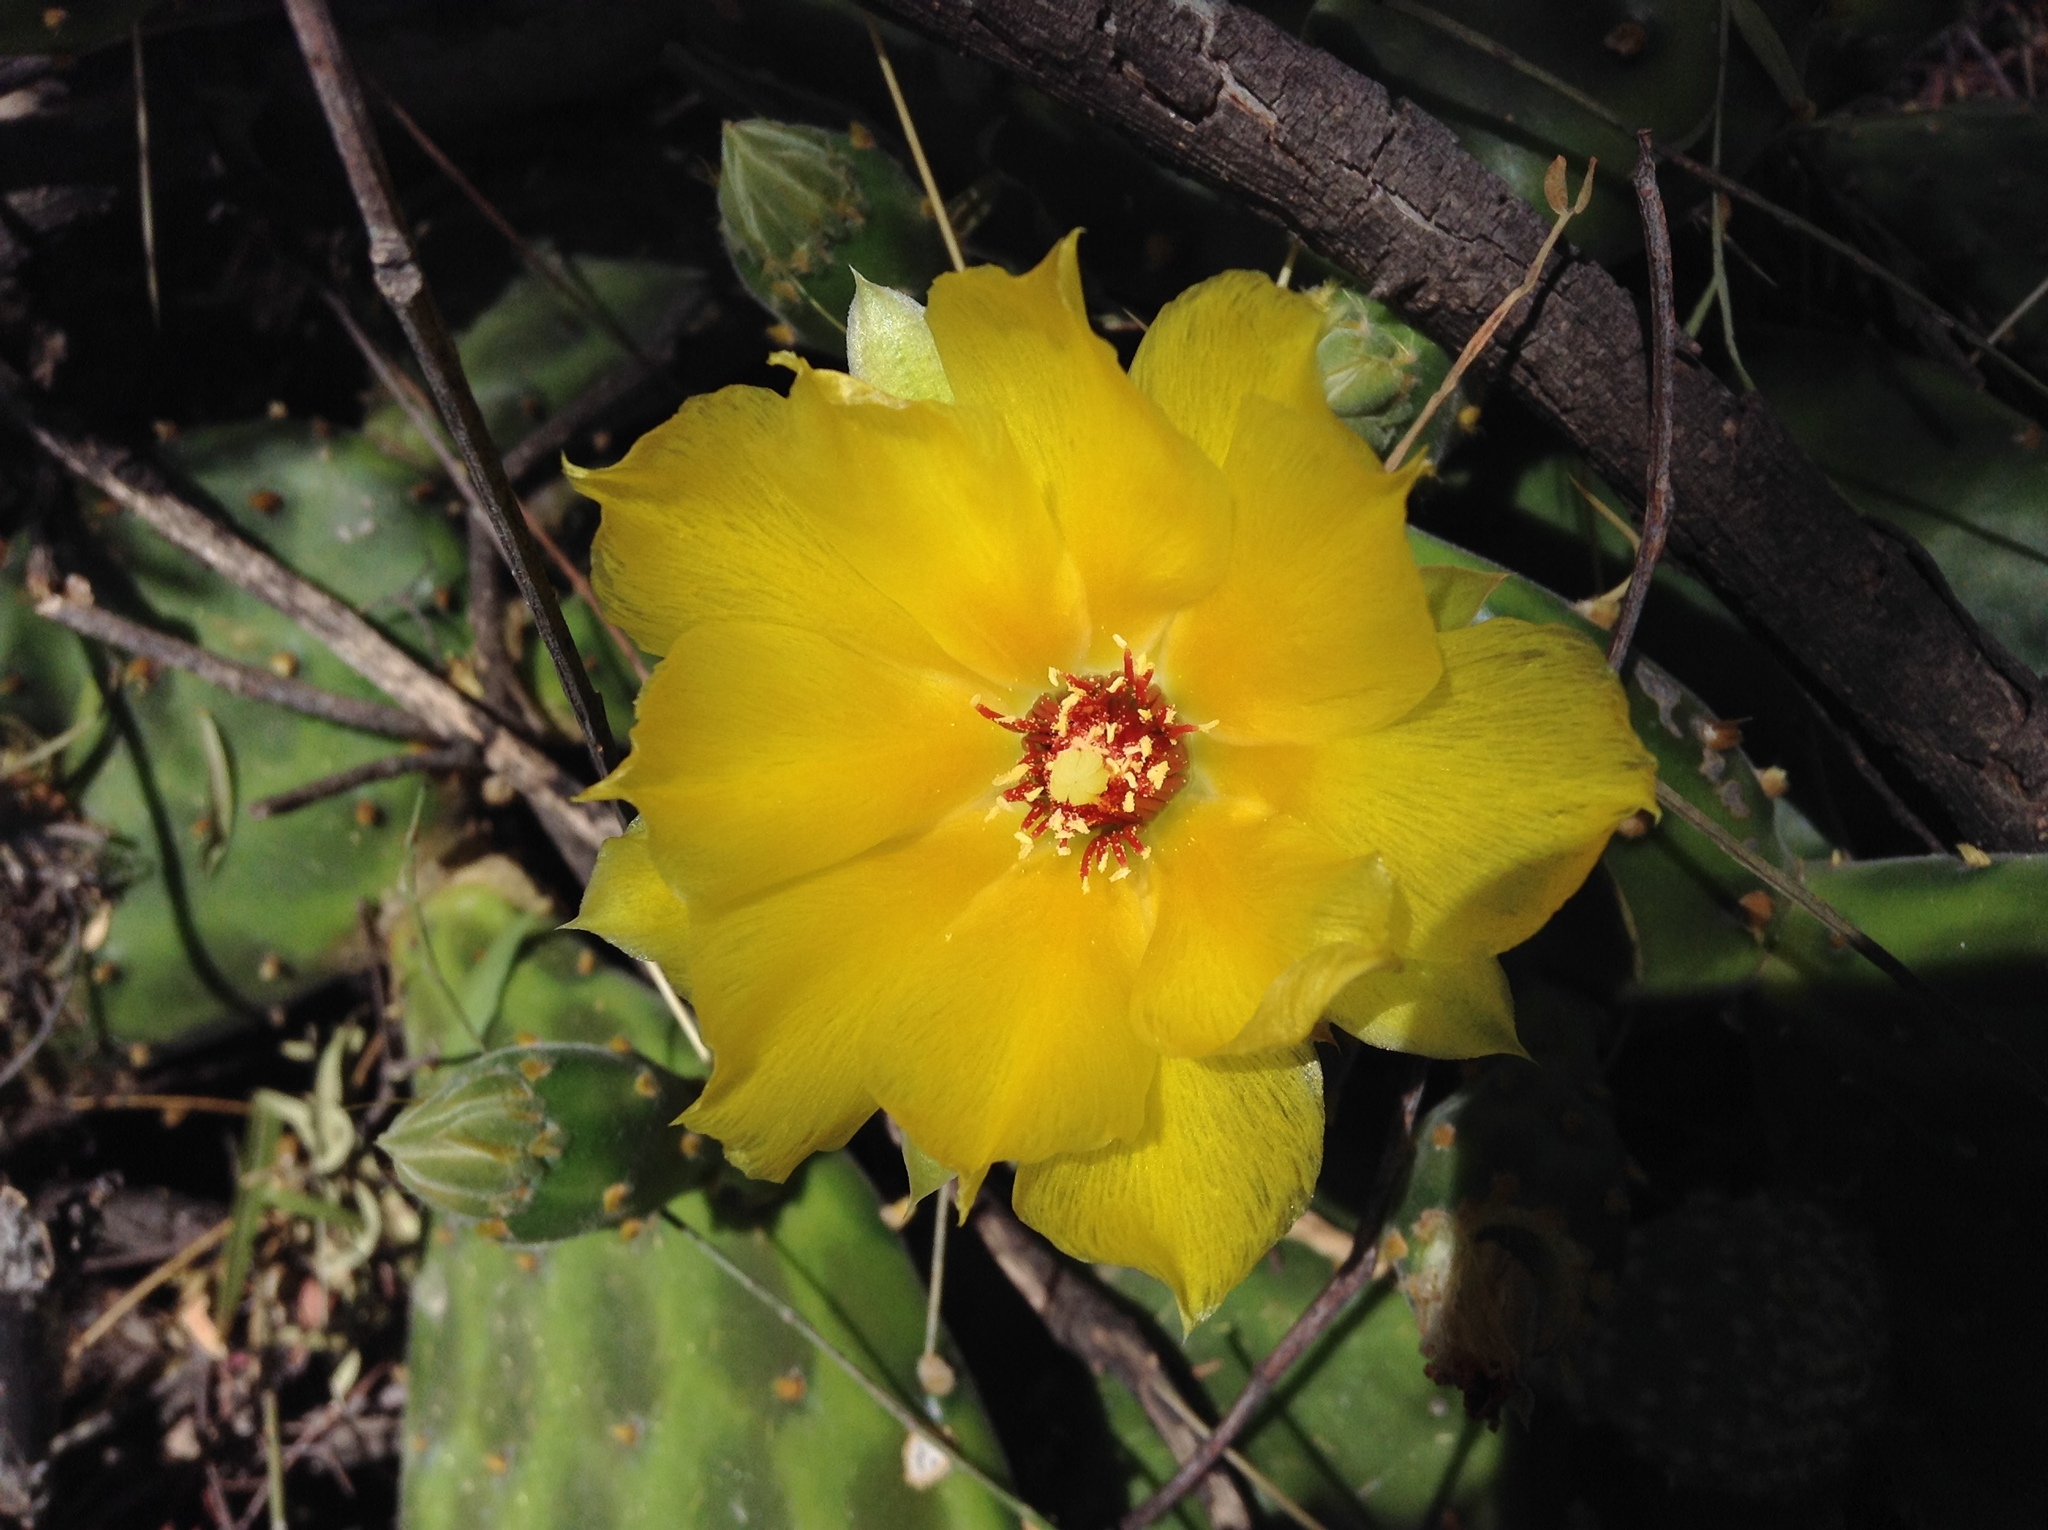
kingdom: Plantae
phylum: Tracheophyta
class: Magnoliopsida
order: Caryophyllales
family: Cactaceae
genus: Opuntia
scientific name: Opuntia decumbens
